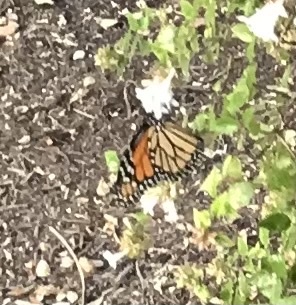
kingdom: Animalia
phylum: Arthropoda
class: Insecta
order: Lepidoptera
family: Nymphalidae
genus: Danaus
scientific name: Danaus plexippus
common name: Monarch
